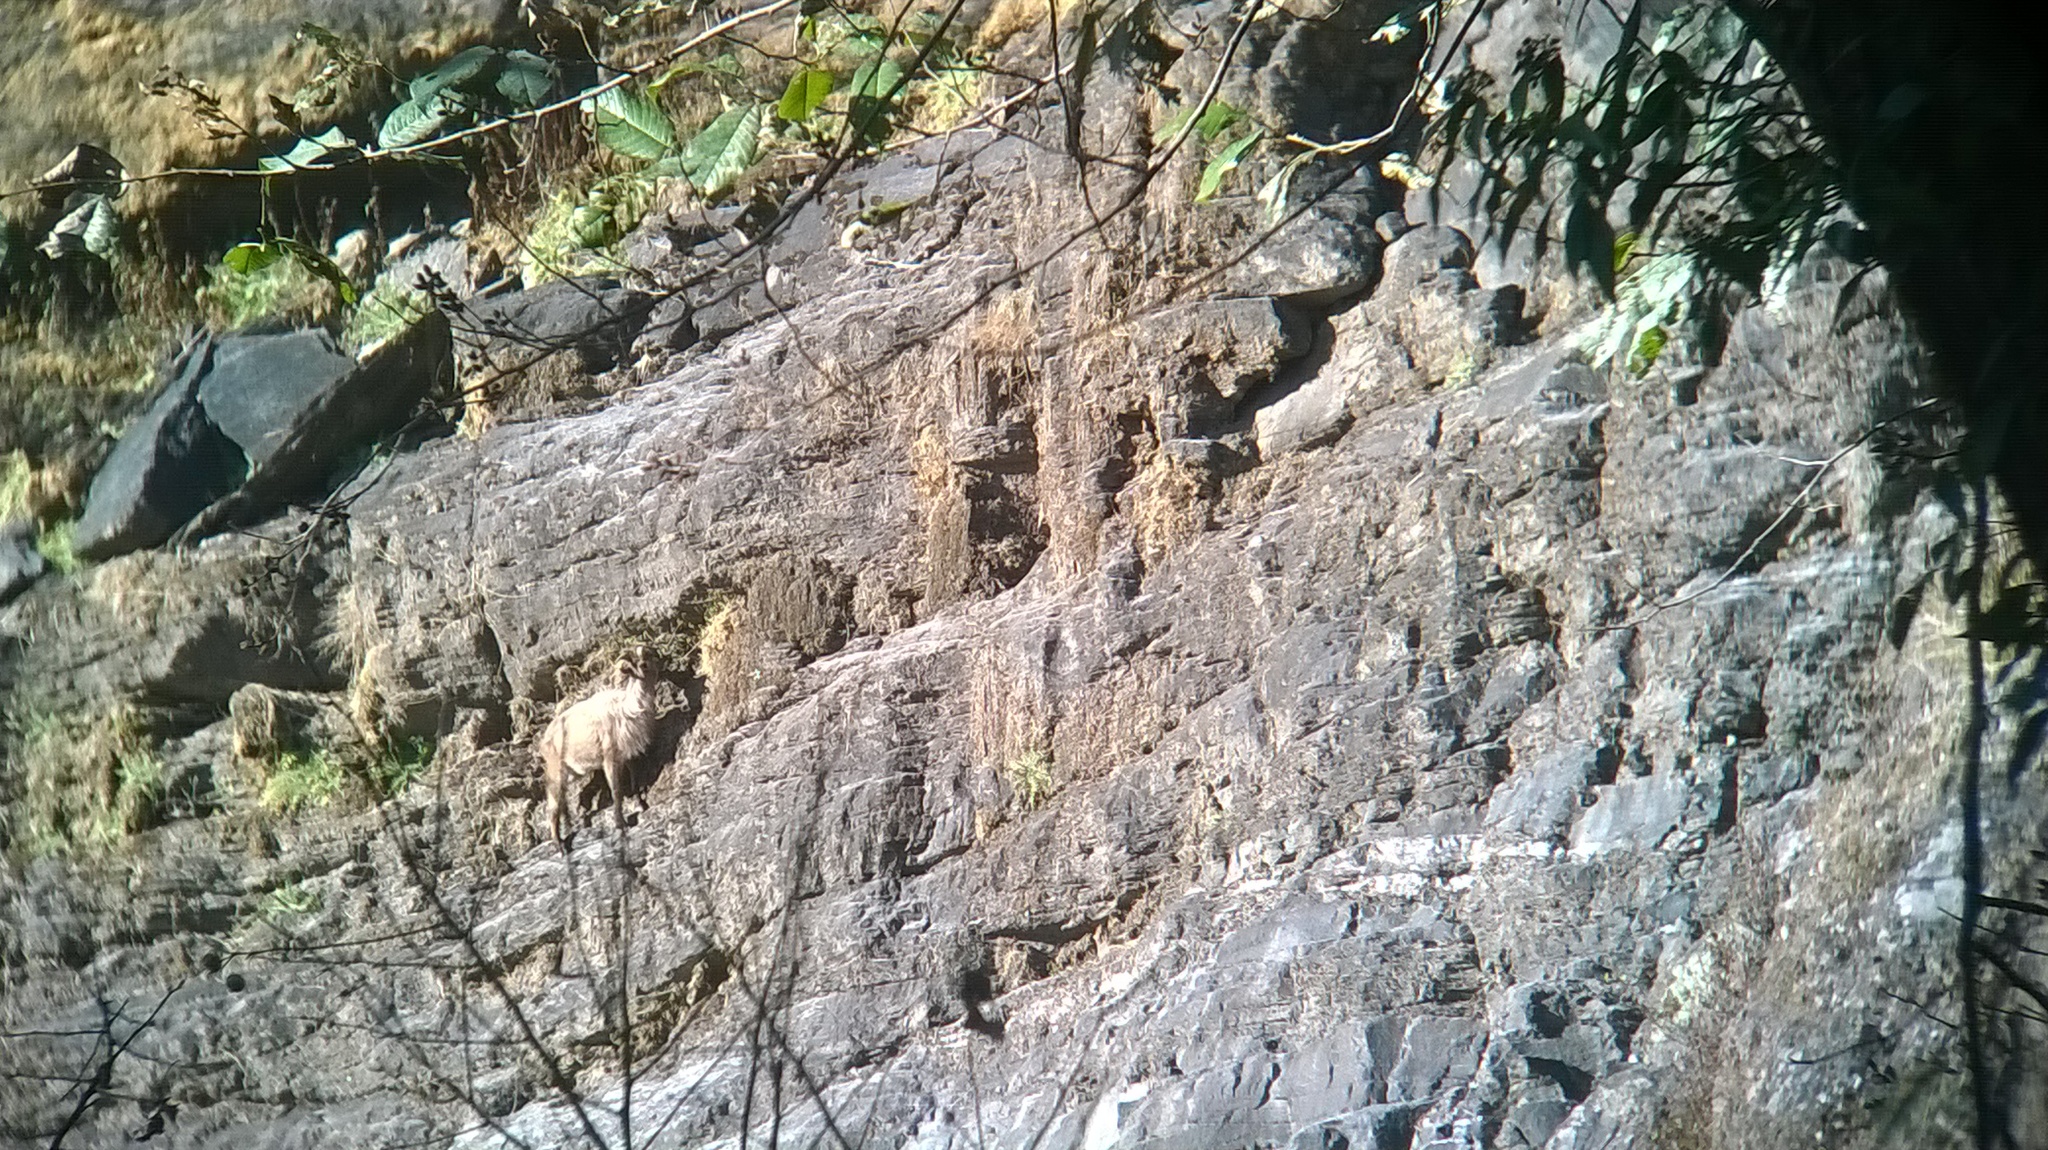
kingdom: Animalia
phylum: Chordata
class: Mammalia
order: Artiodactyla
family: Bovidae
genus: Hemitragus
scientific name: Hemitragus jemlahicus
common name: Himalayan tahr
